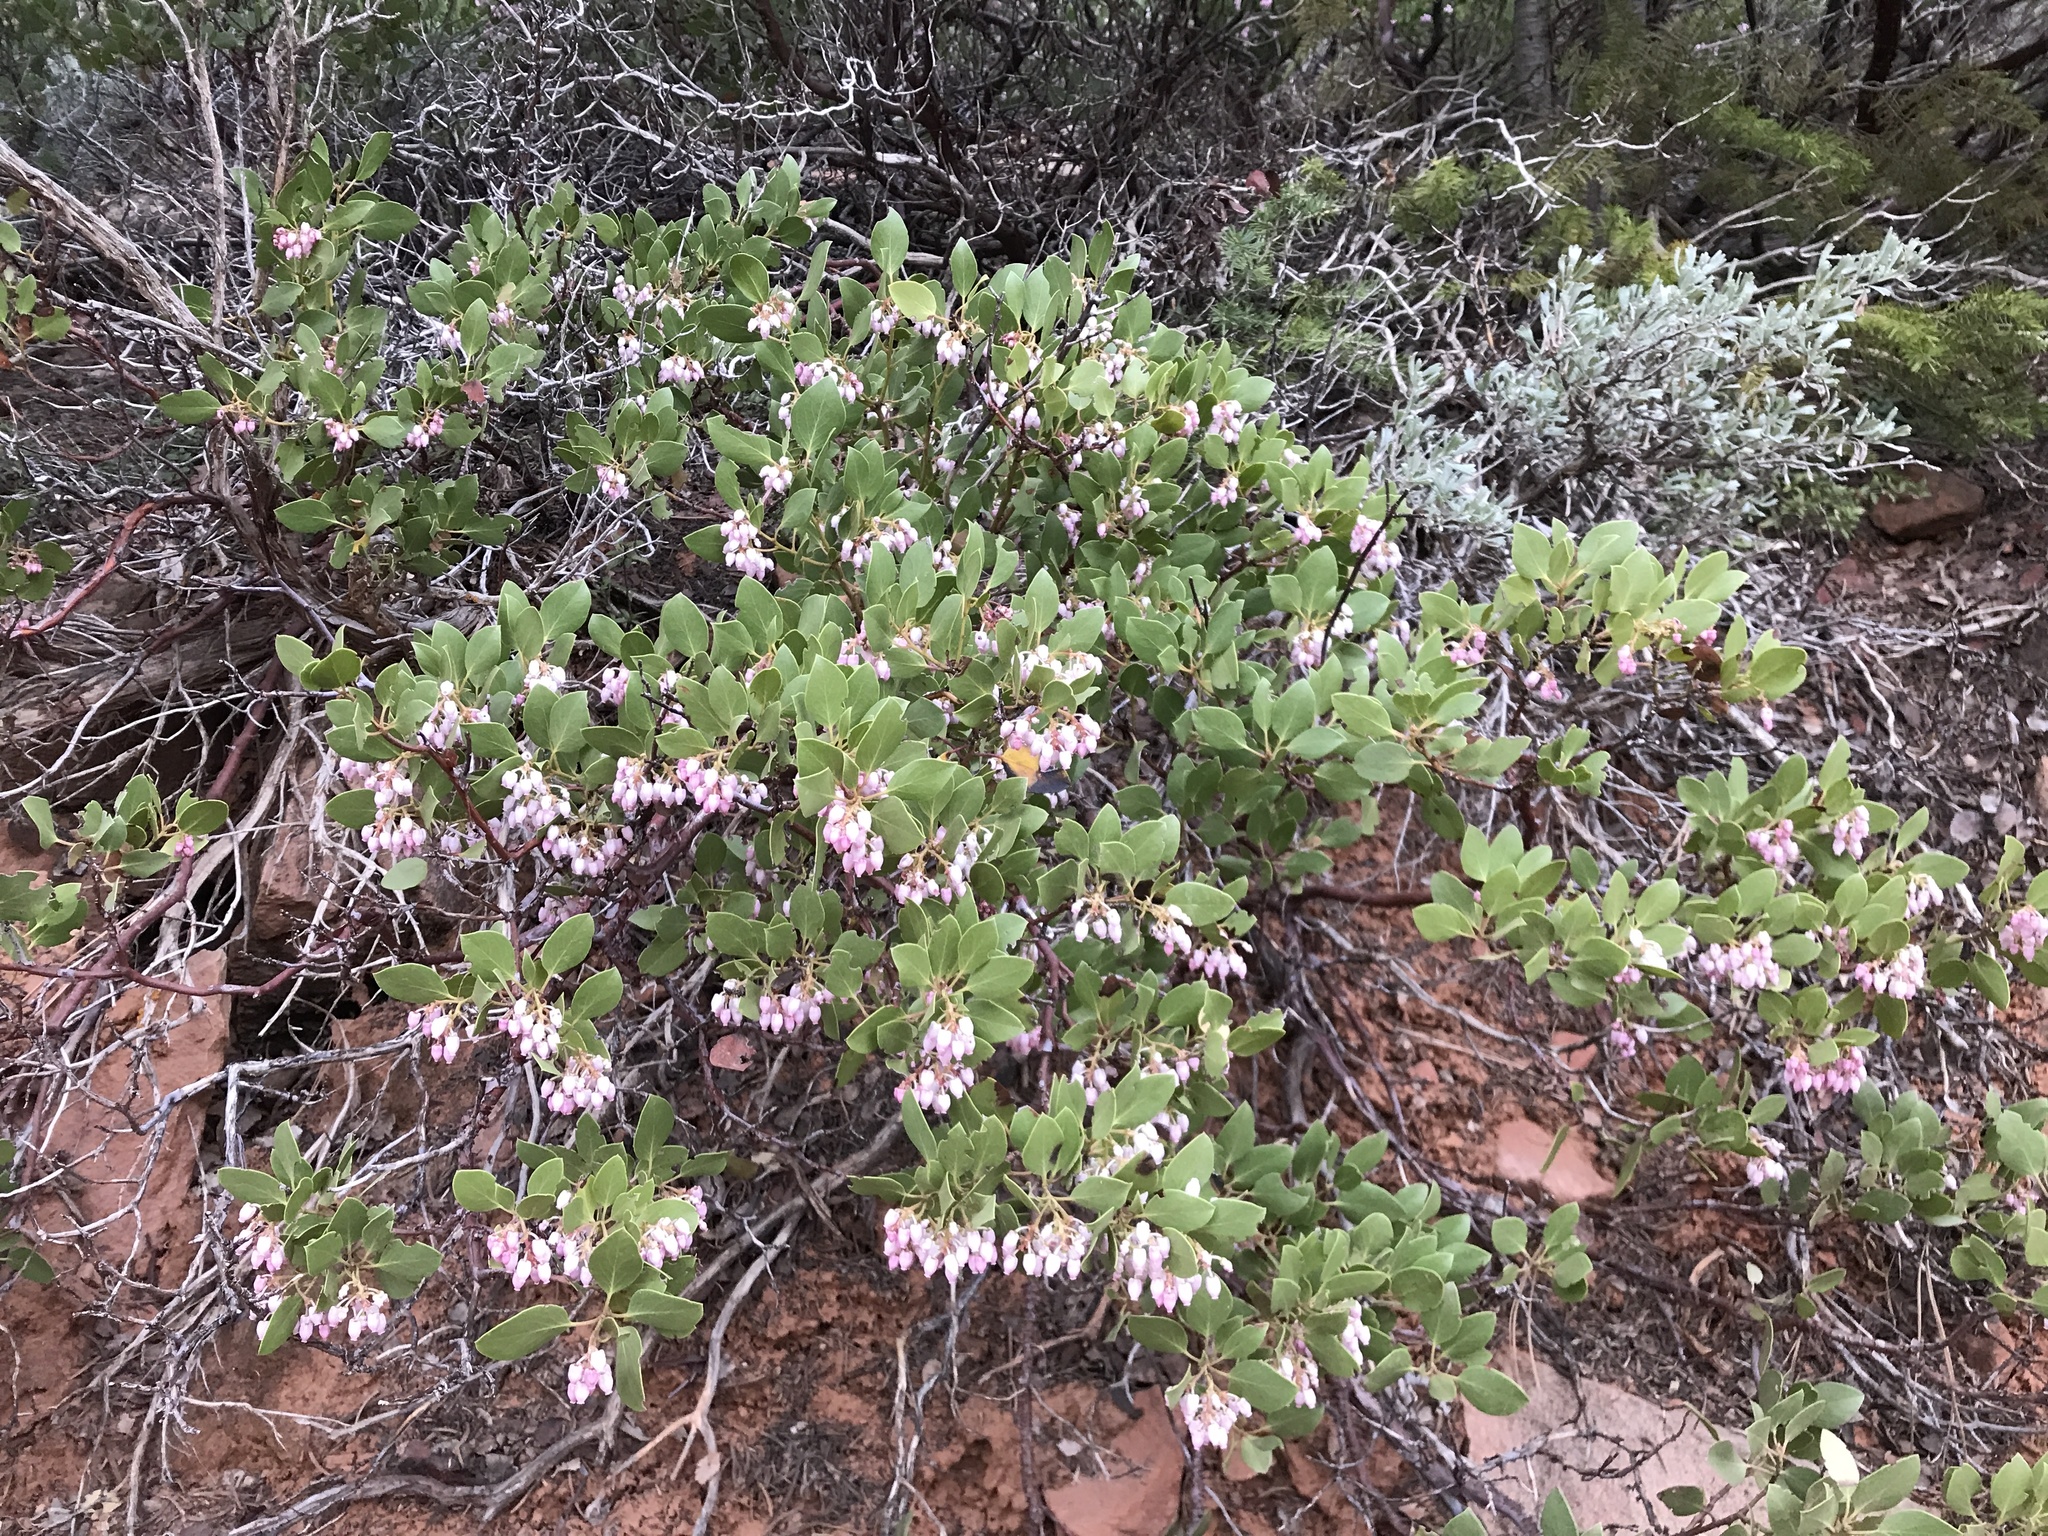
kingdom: Plantae
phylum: Tracheophyta
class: Magnoliopsida
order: Ericales
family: Ericaceae
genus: Arctostaphylos
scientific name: Arctostaphylos patula
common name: Green-leaf manzanita
